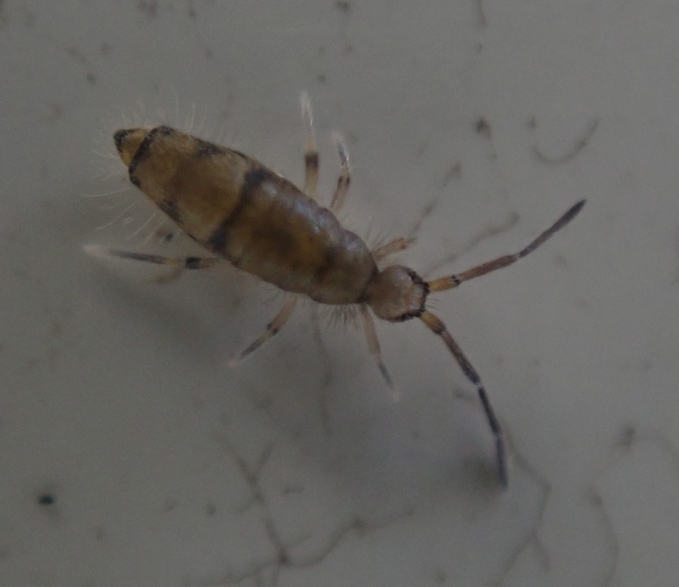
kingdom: Animalia
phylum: Arthropoda
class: Collembola
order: Entomobryomorpha
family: Entomobryidae
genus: Willowsia
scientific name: Willowsia nigromaculata
